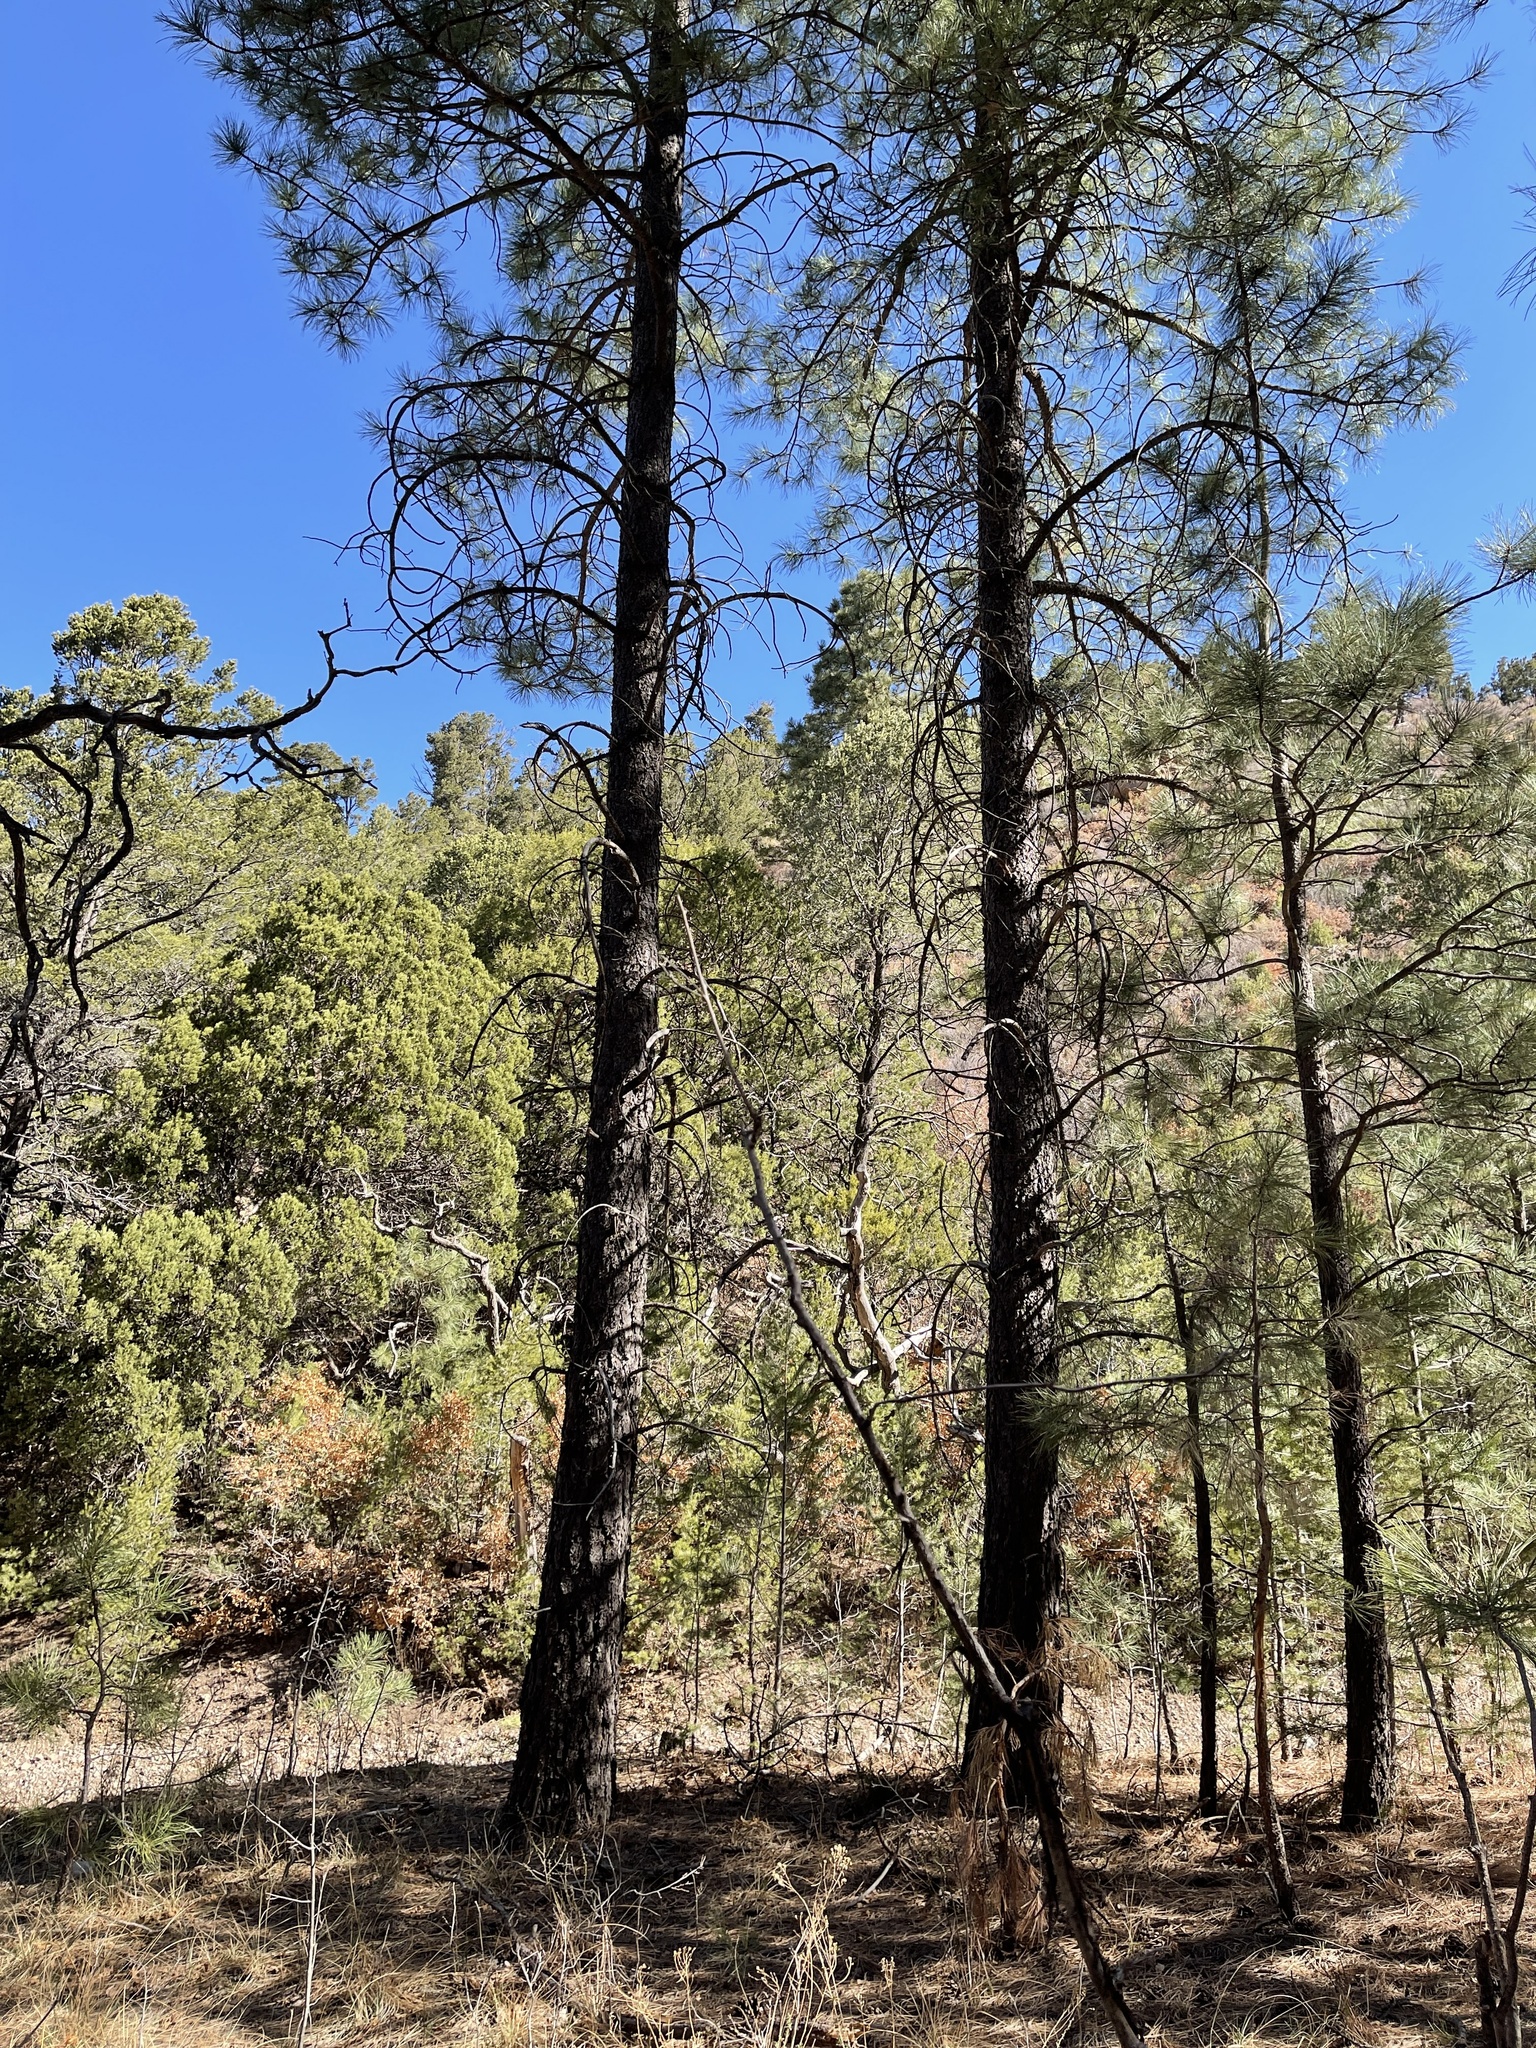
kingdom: Plantae
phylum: Tracheophyta
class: Pinopsida
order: Pinales
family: Pinaceae
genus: Pinus
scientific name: Pinus ponderosa
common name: Western yellow-pine
